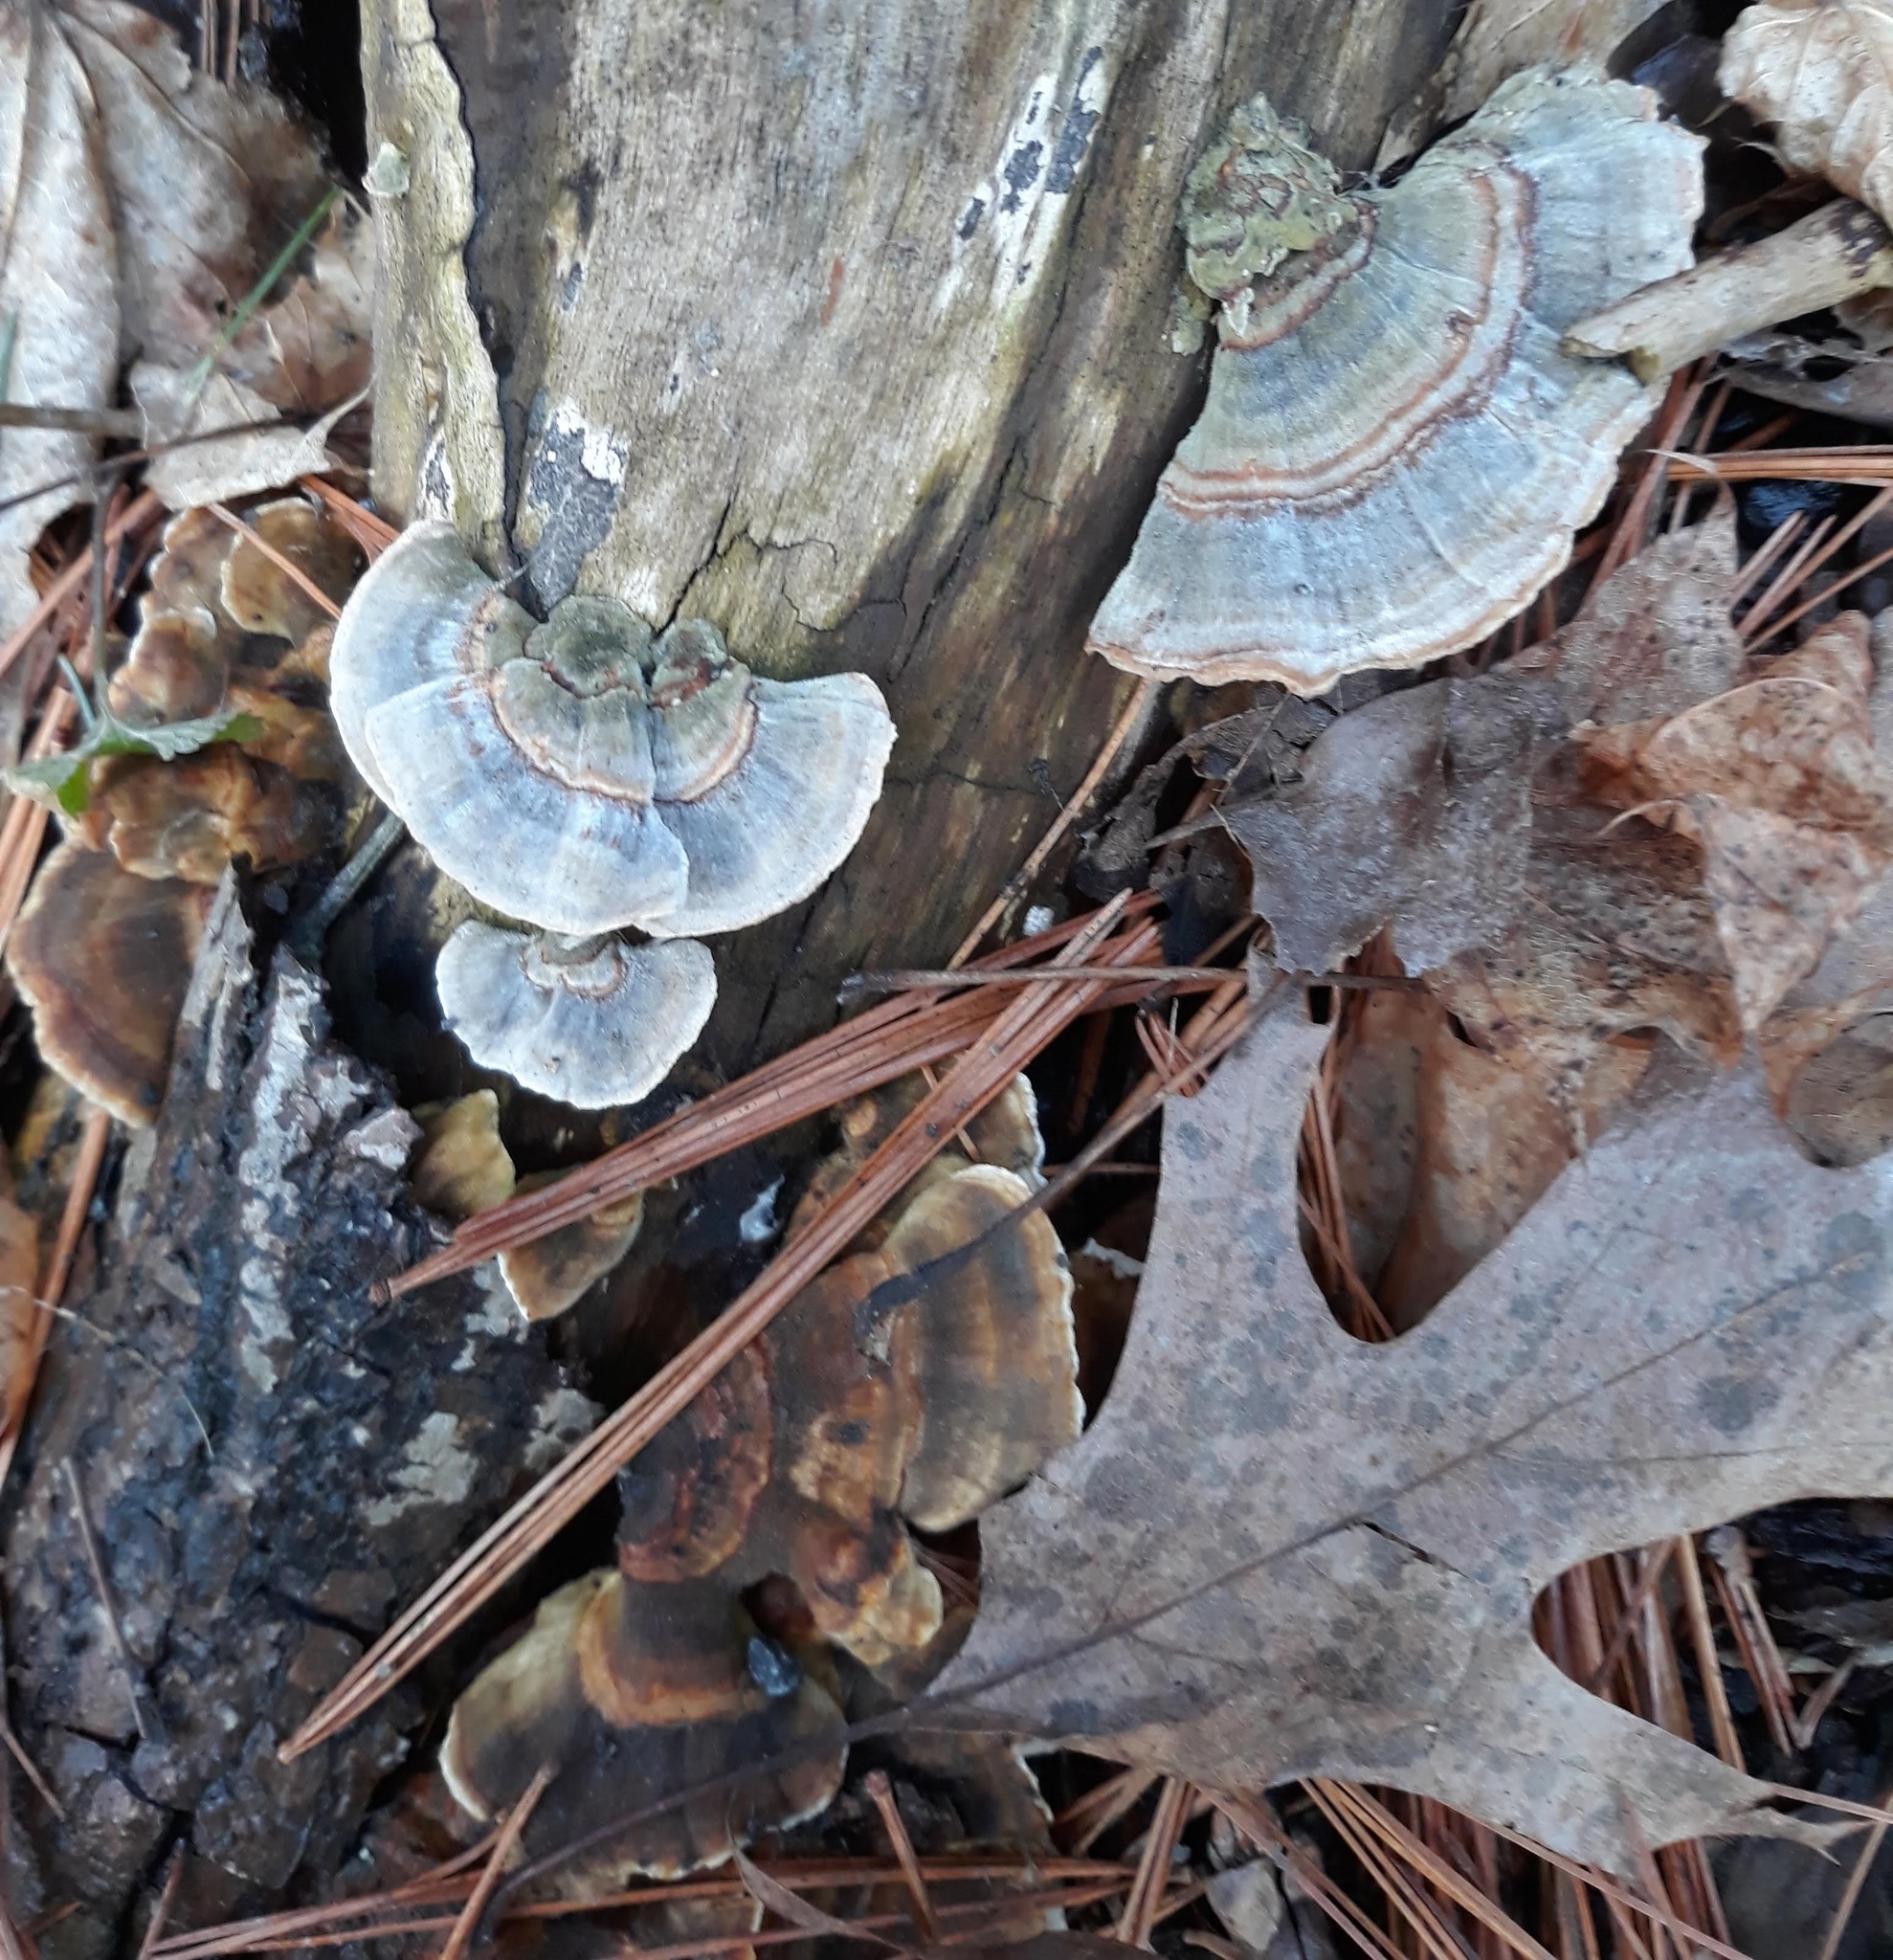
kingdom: Fungi
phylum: Basidiomycota
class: Agaricomycetes
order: Polyporales
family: Polyporaceae
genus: Trametes
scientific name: Trametes versicolor
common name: Turkeytail
